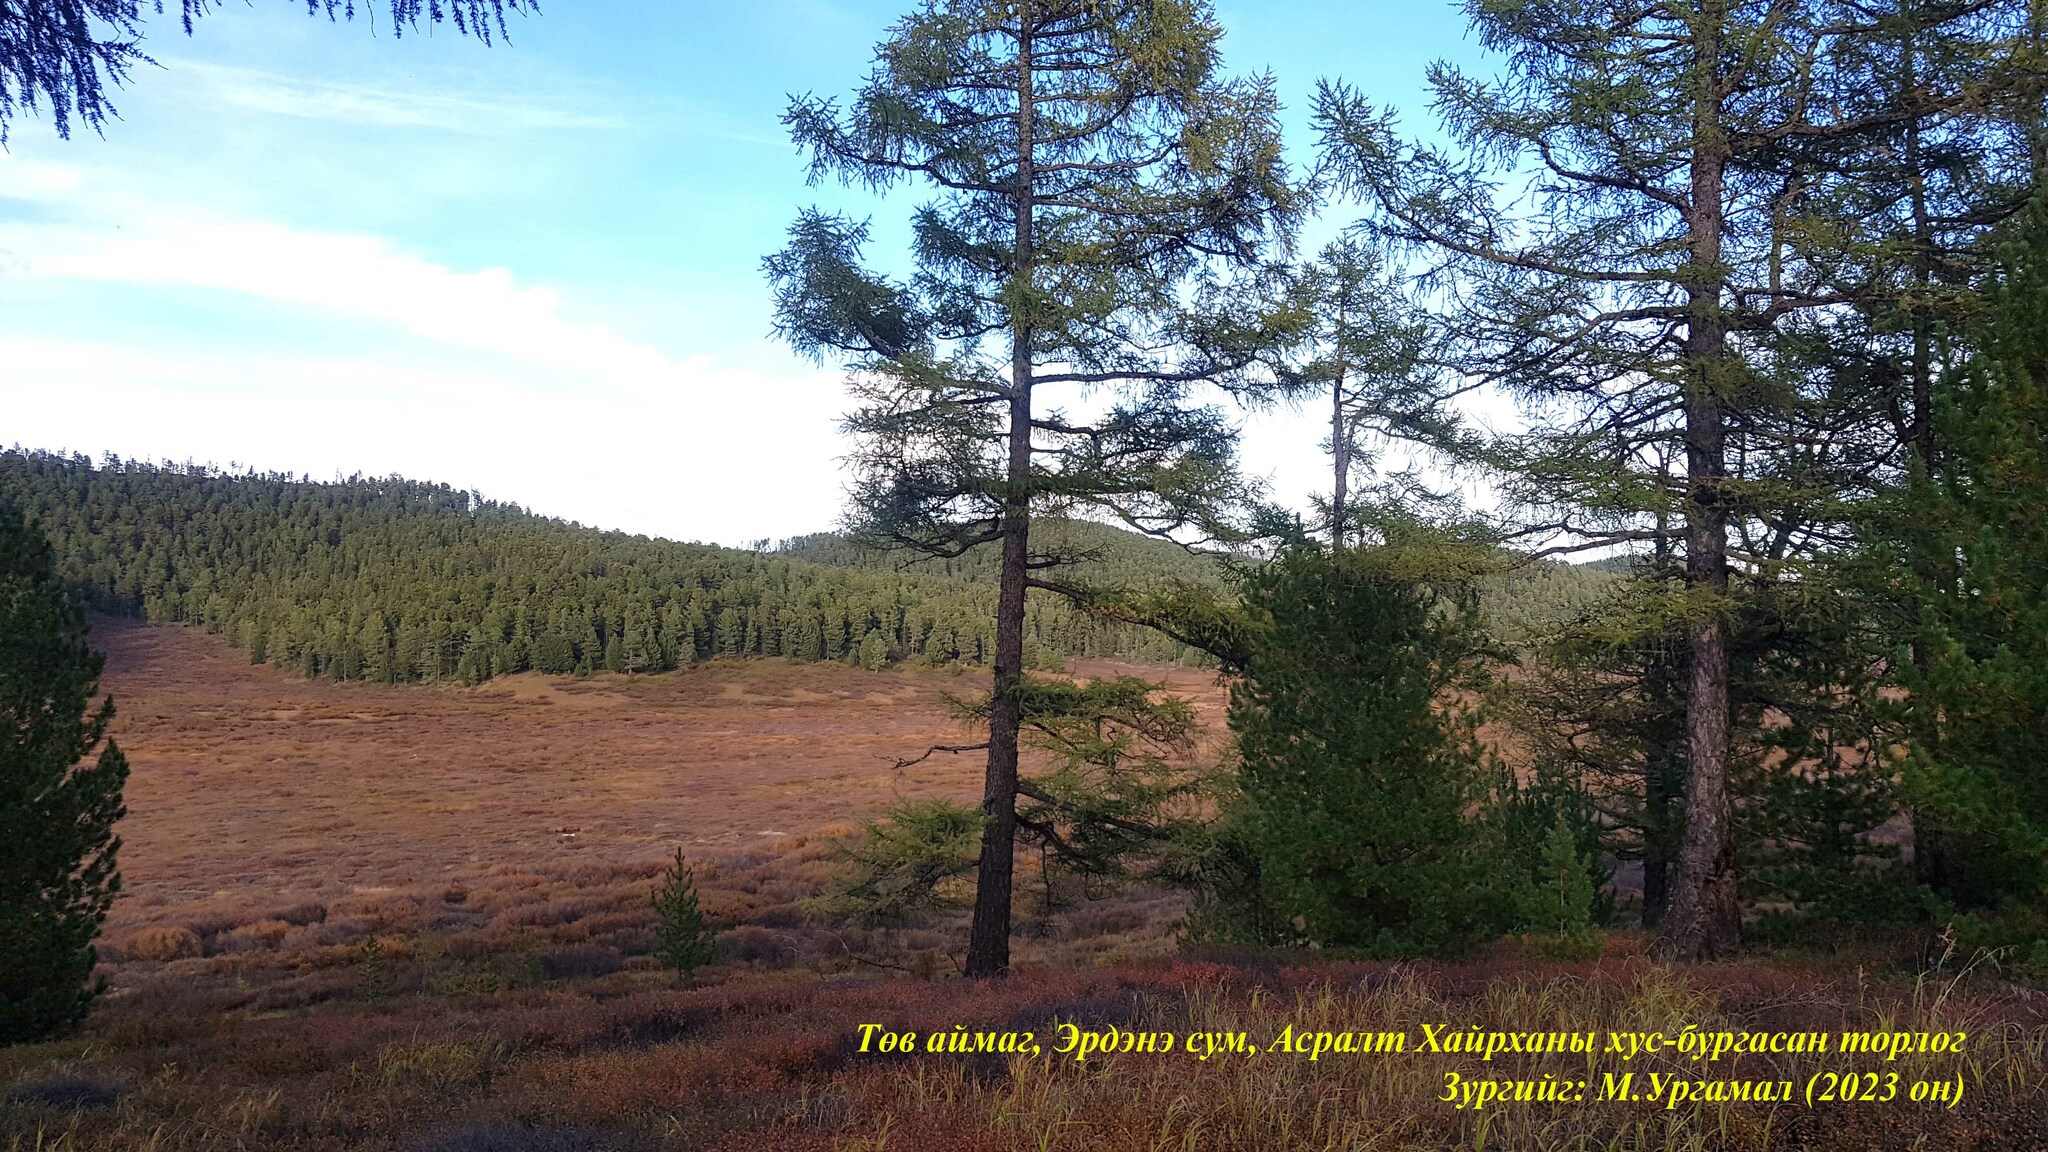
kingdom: Plantae
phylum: Tracheophyta
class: Pinopsida
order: Pinales
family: Pinaceae
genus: Larix
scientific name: Larix sibirica
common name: Siberian larch
